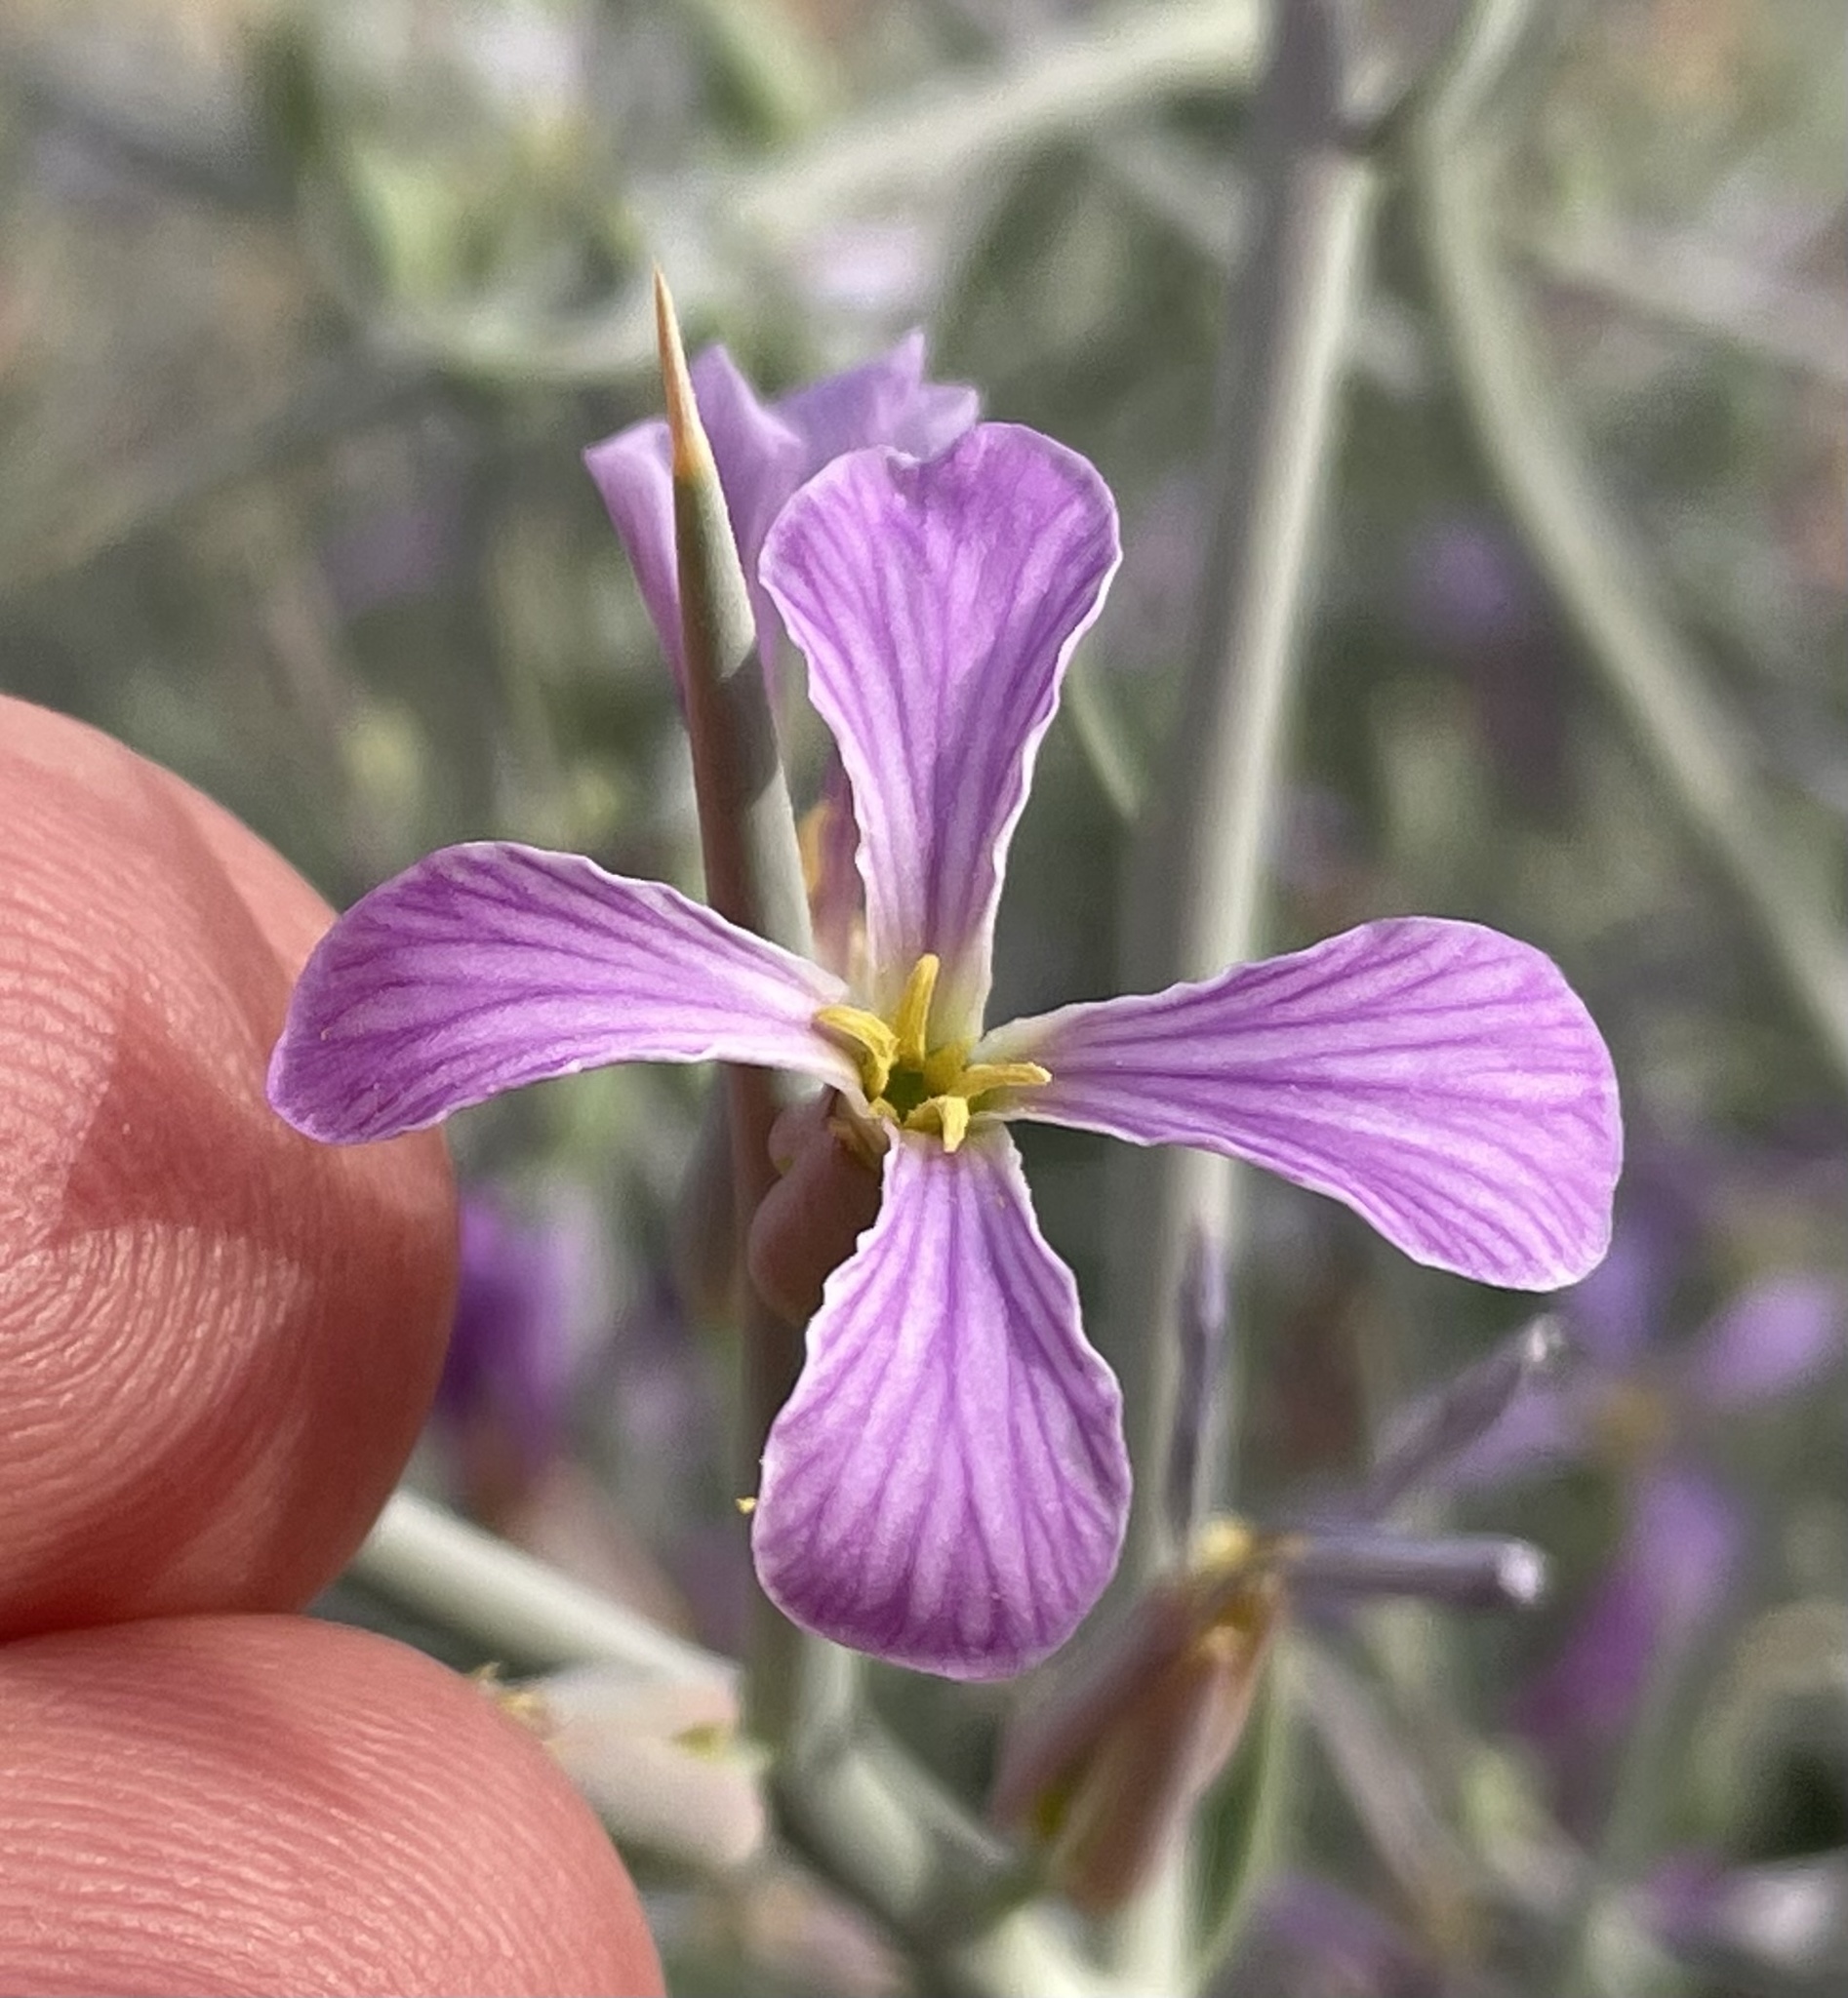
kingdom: Plantae
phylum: Tracheophyta
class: Magnoliopsida
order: Brassicales
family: Brassicaceae
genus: Zilla
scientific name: Zilla spinosa
